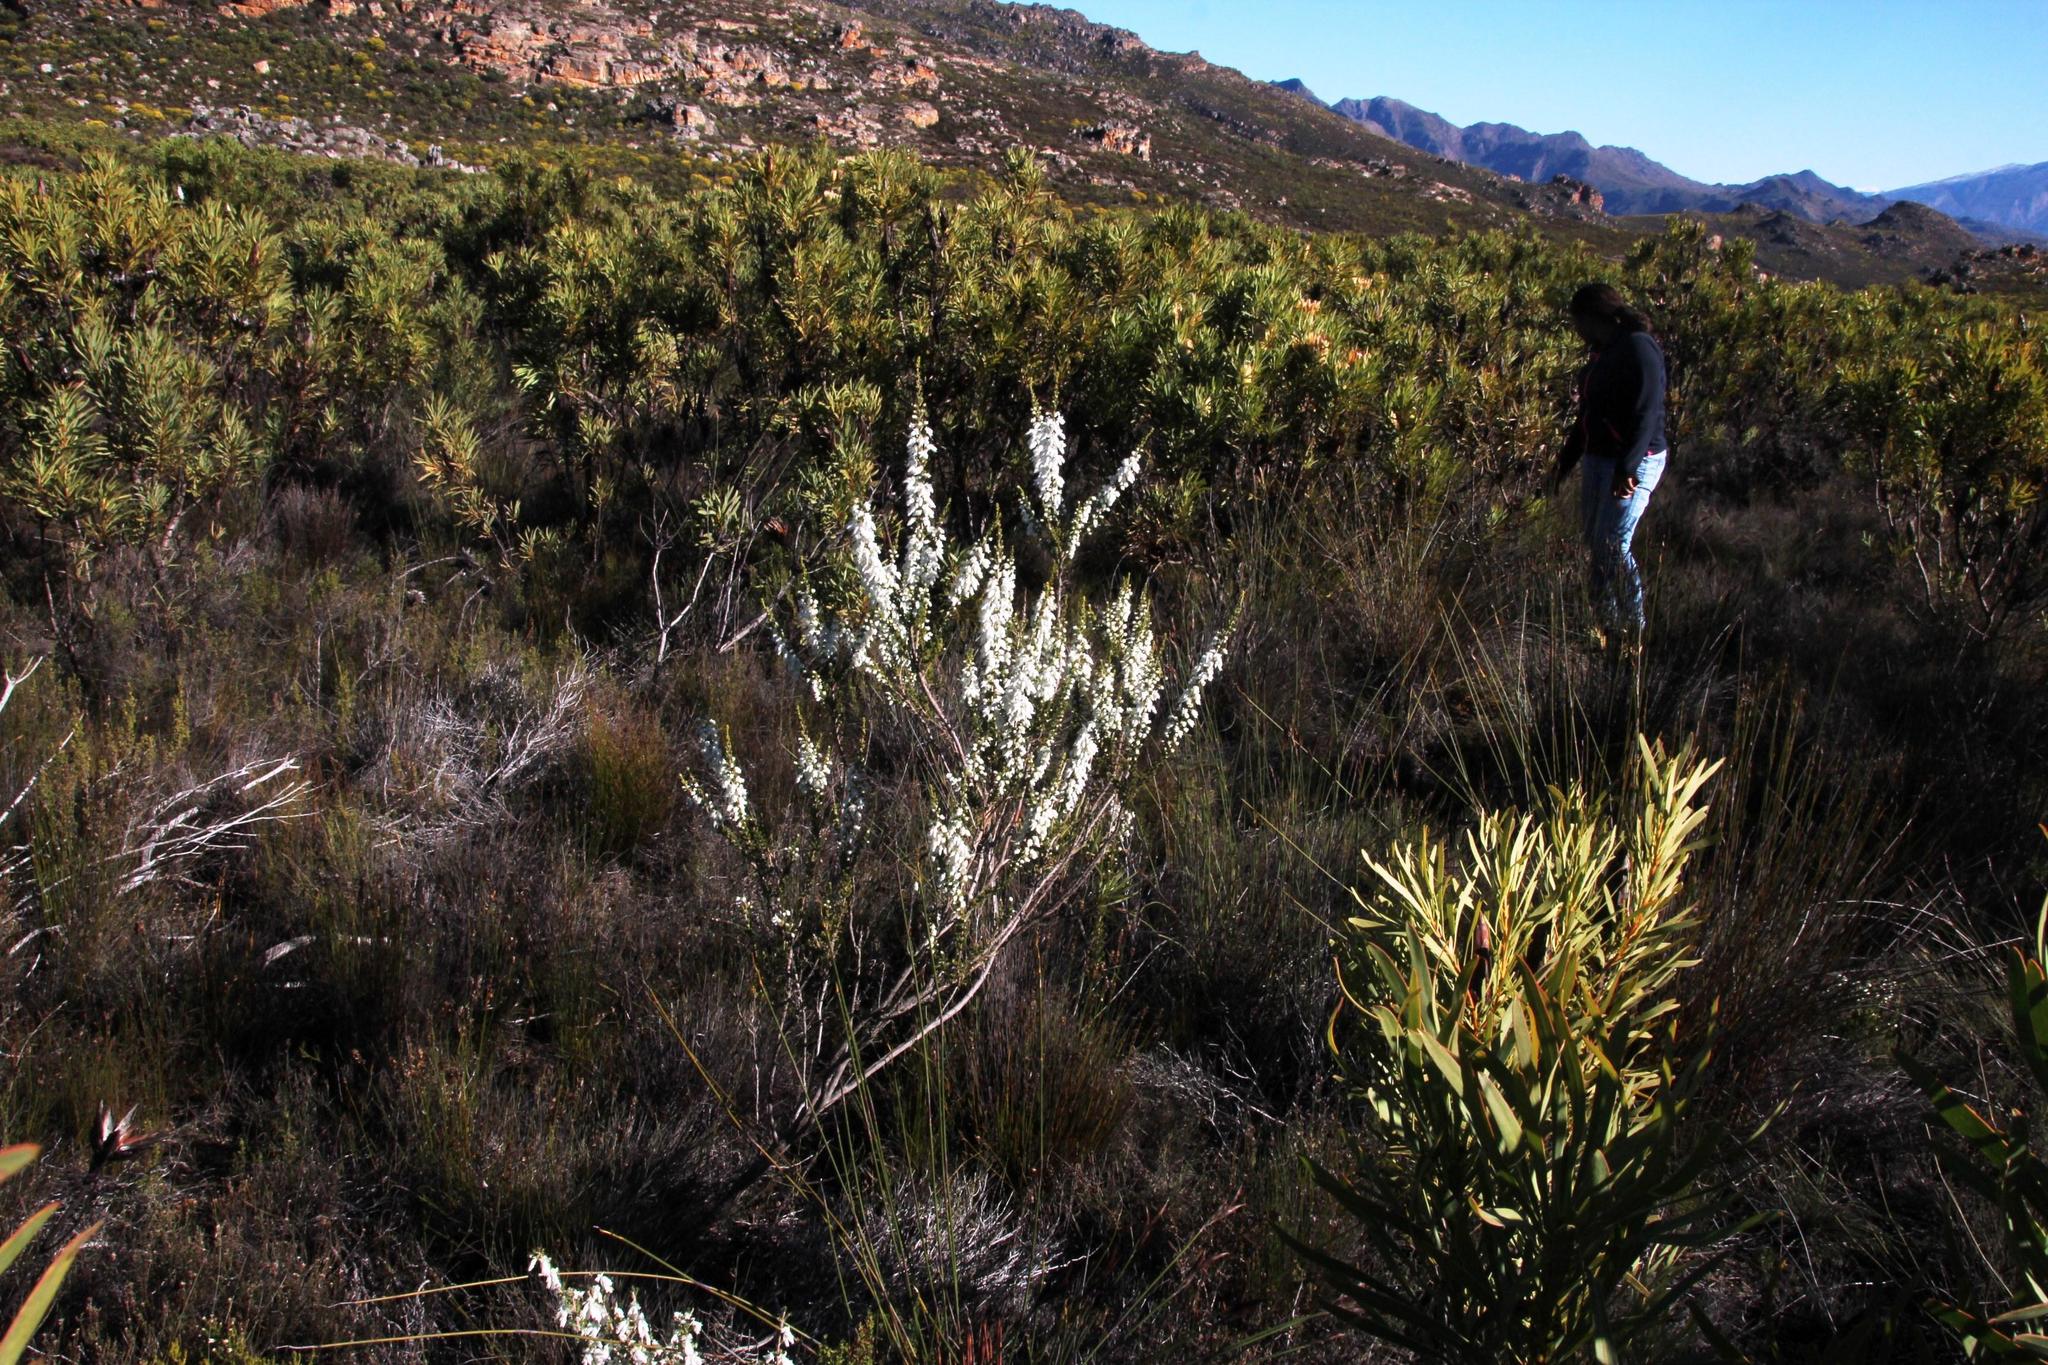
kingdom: Plantae
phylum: Tracheophyta
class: Magnoliopsida
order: Ericales
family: Ericaceae
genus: Erica
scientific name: Erica monsoniana
